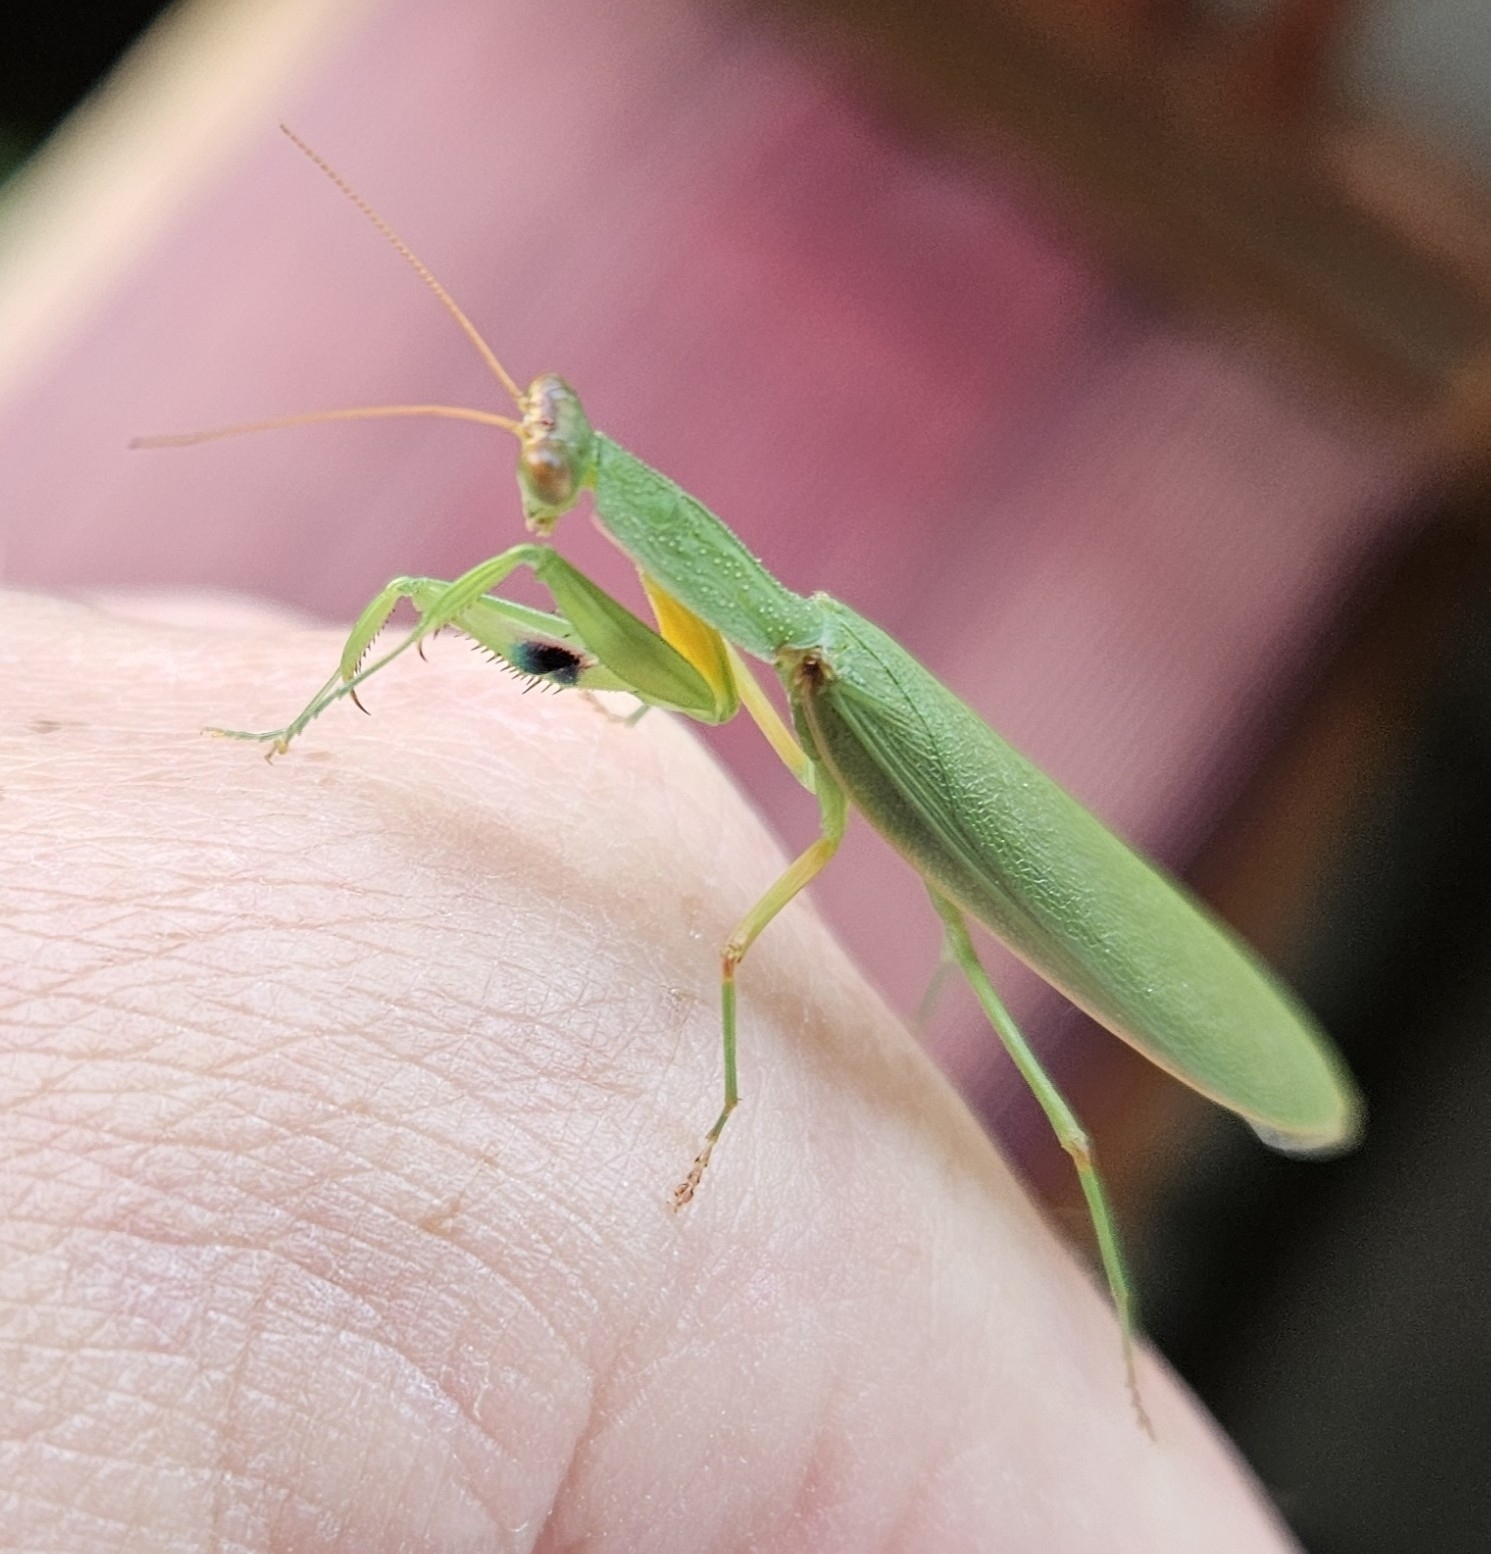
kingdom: Animalia
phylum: Arthropoda
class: Insecta
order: Mantodea
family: Mantidae
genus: Orthodera
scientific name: Orthodera novaezealandiae
